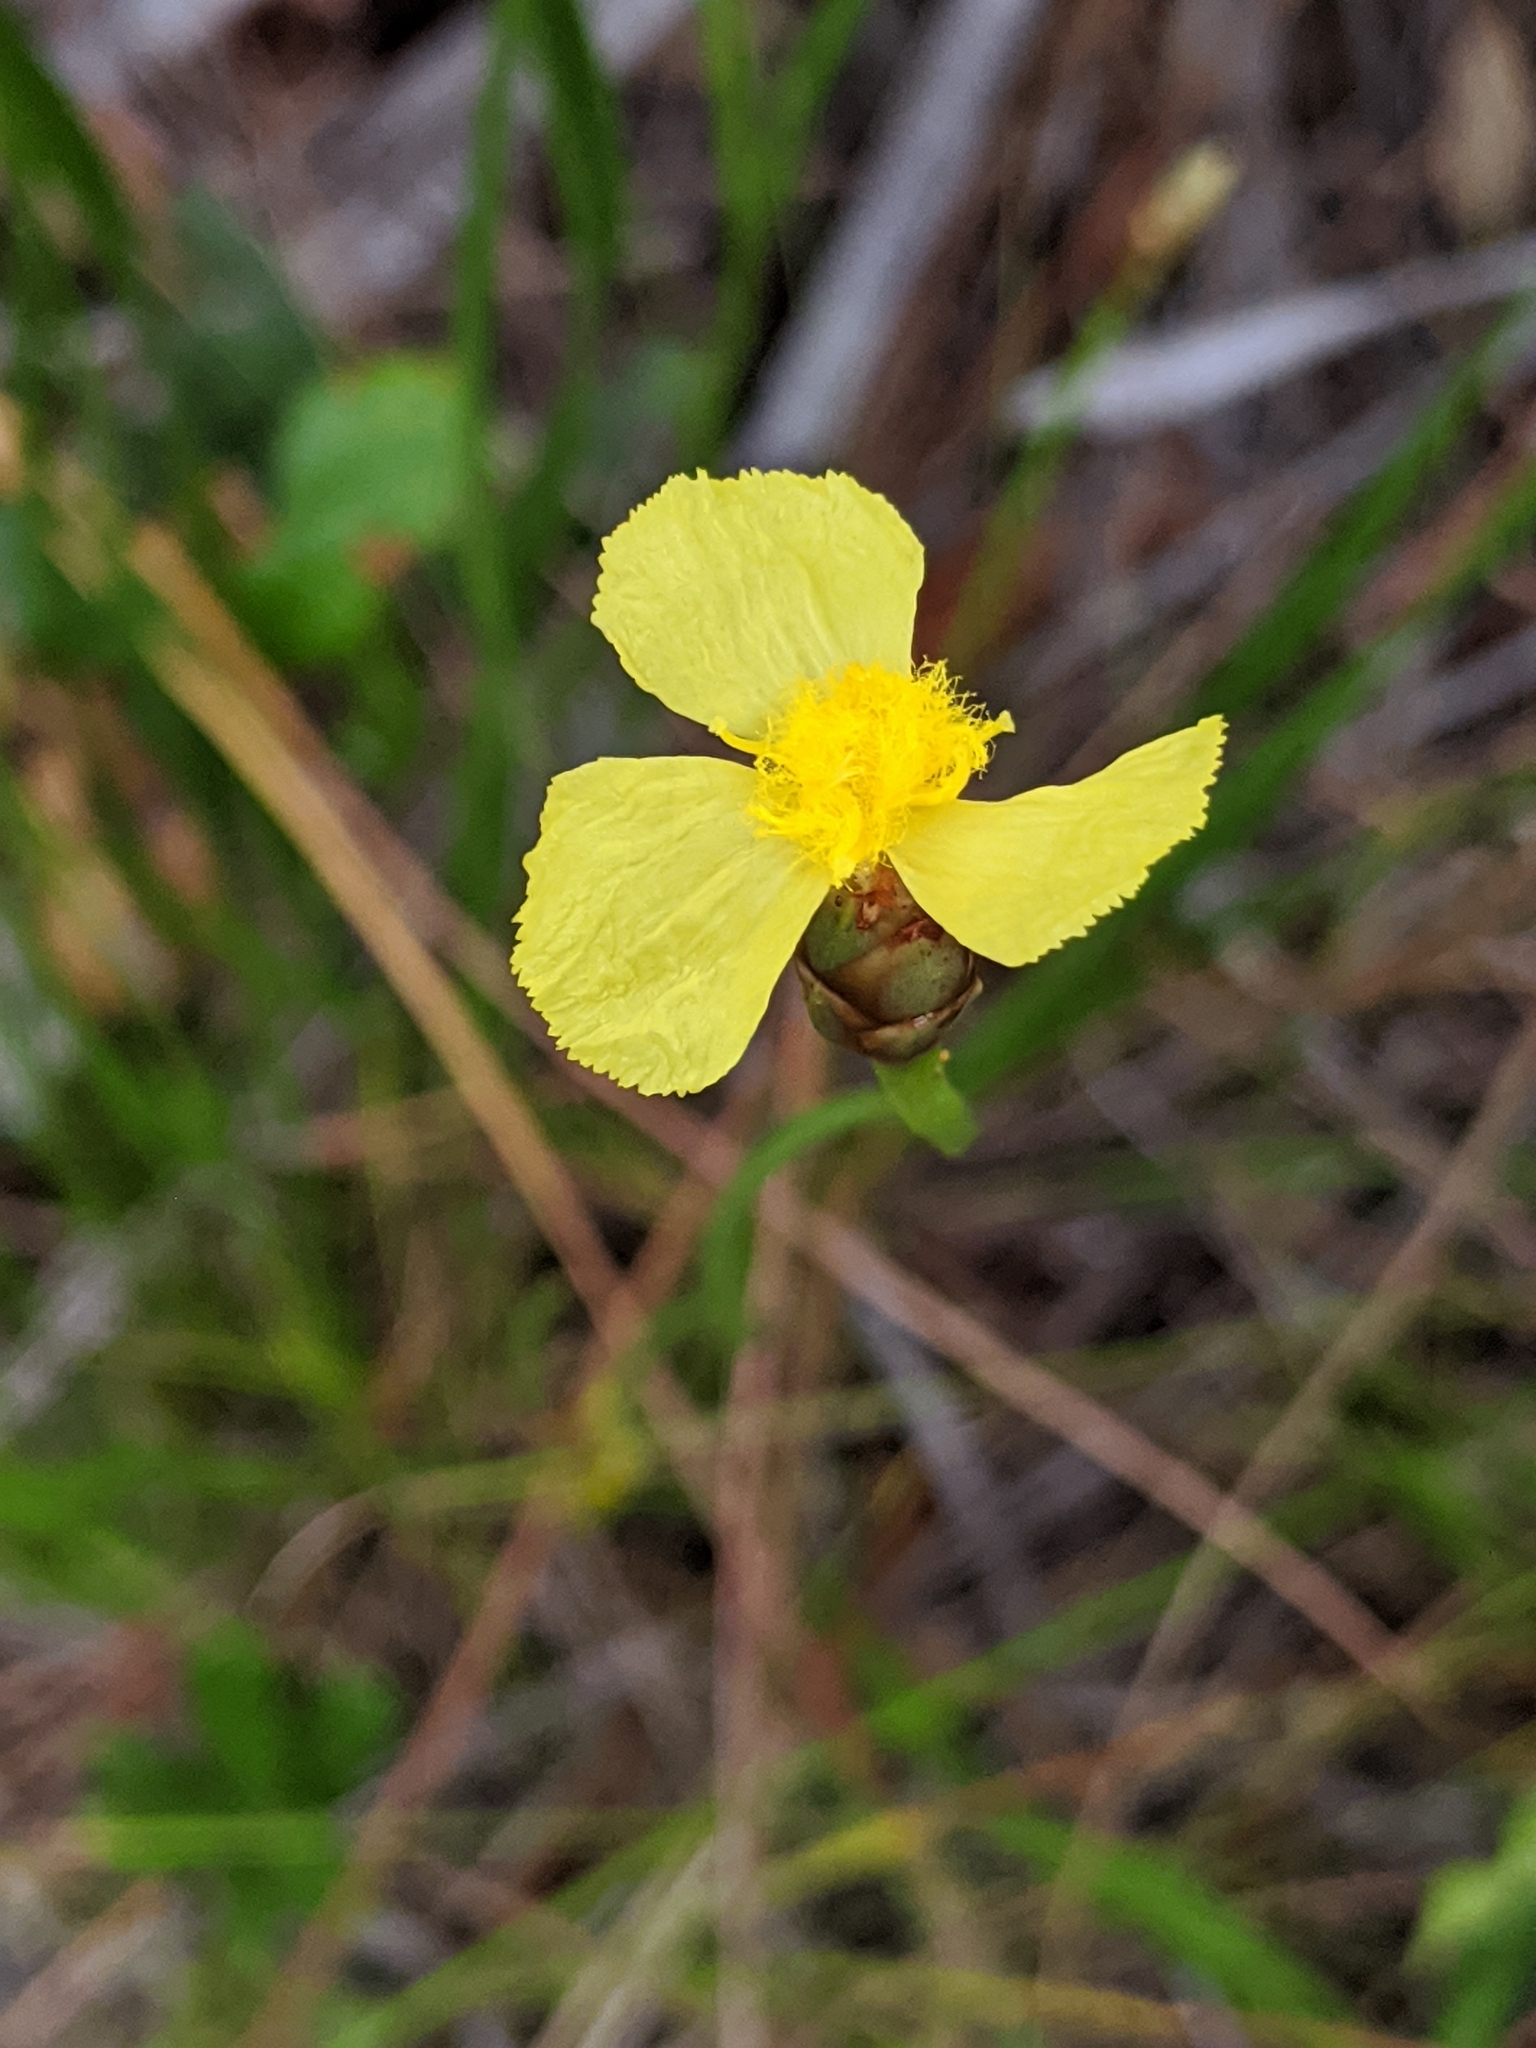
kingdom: Plantae
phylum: Tracheophyta
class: Liliopsida
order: Poales
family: Xyridaceae
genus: Xyris
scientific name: Xyris caroliniana
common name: Carolina yellow-eyed-grass
